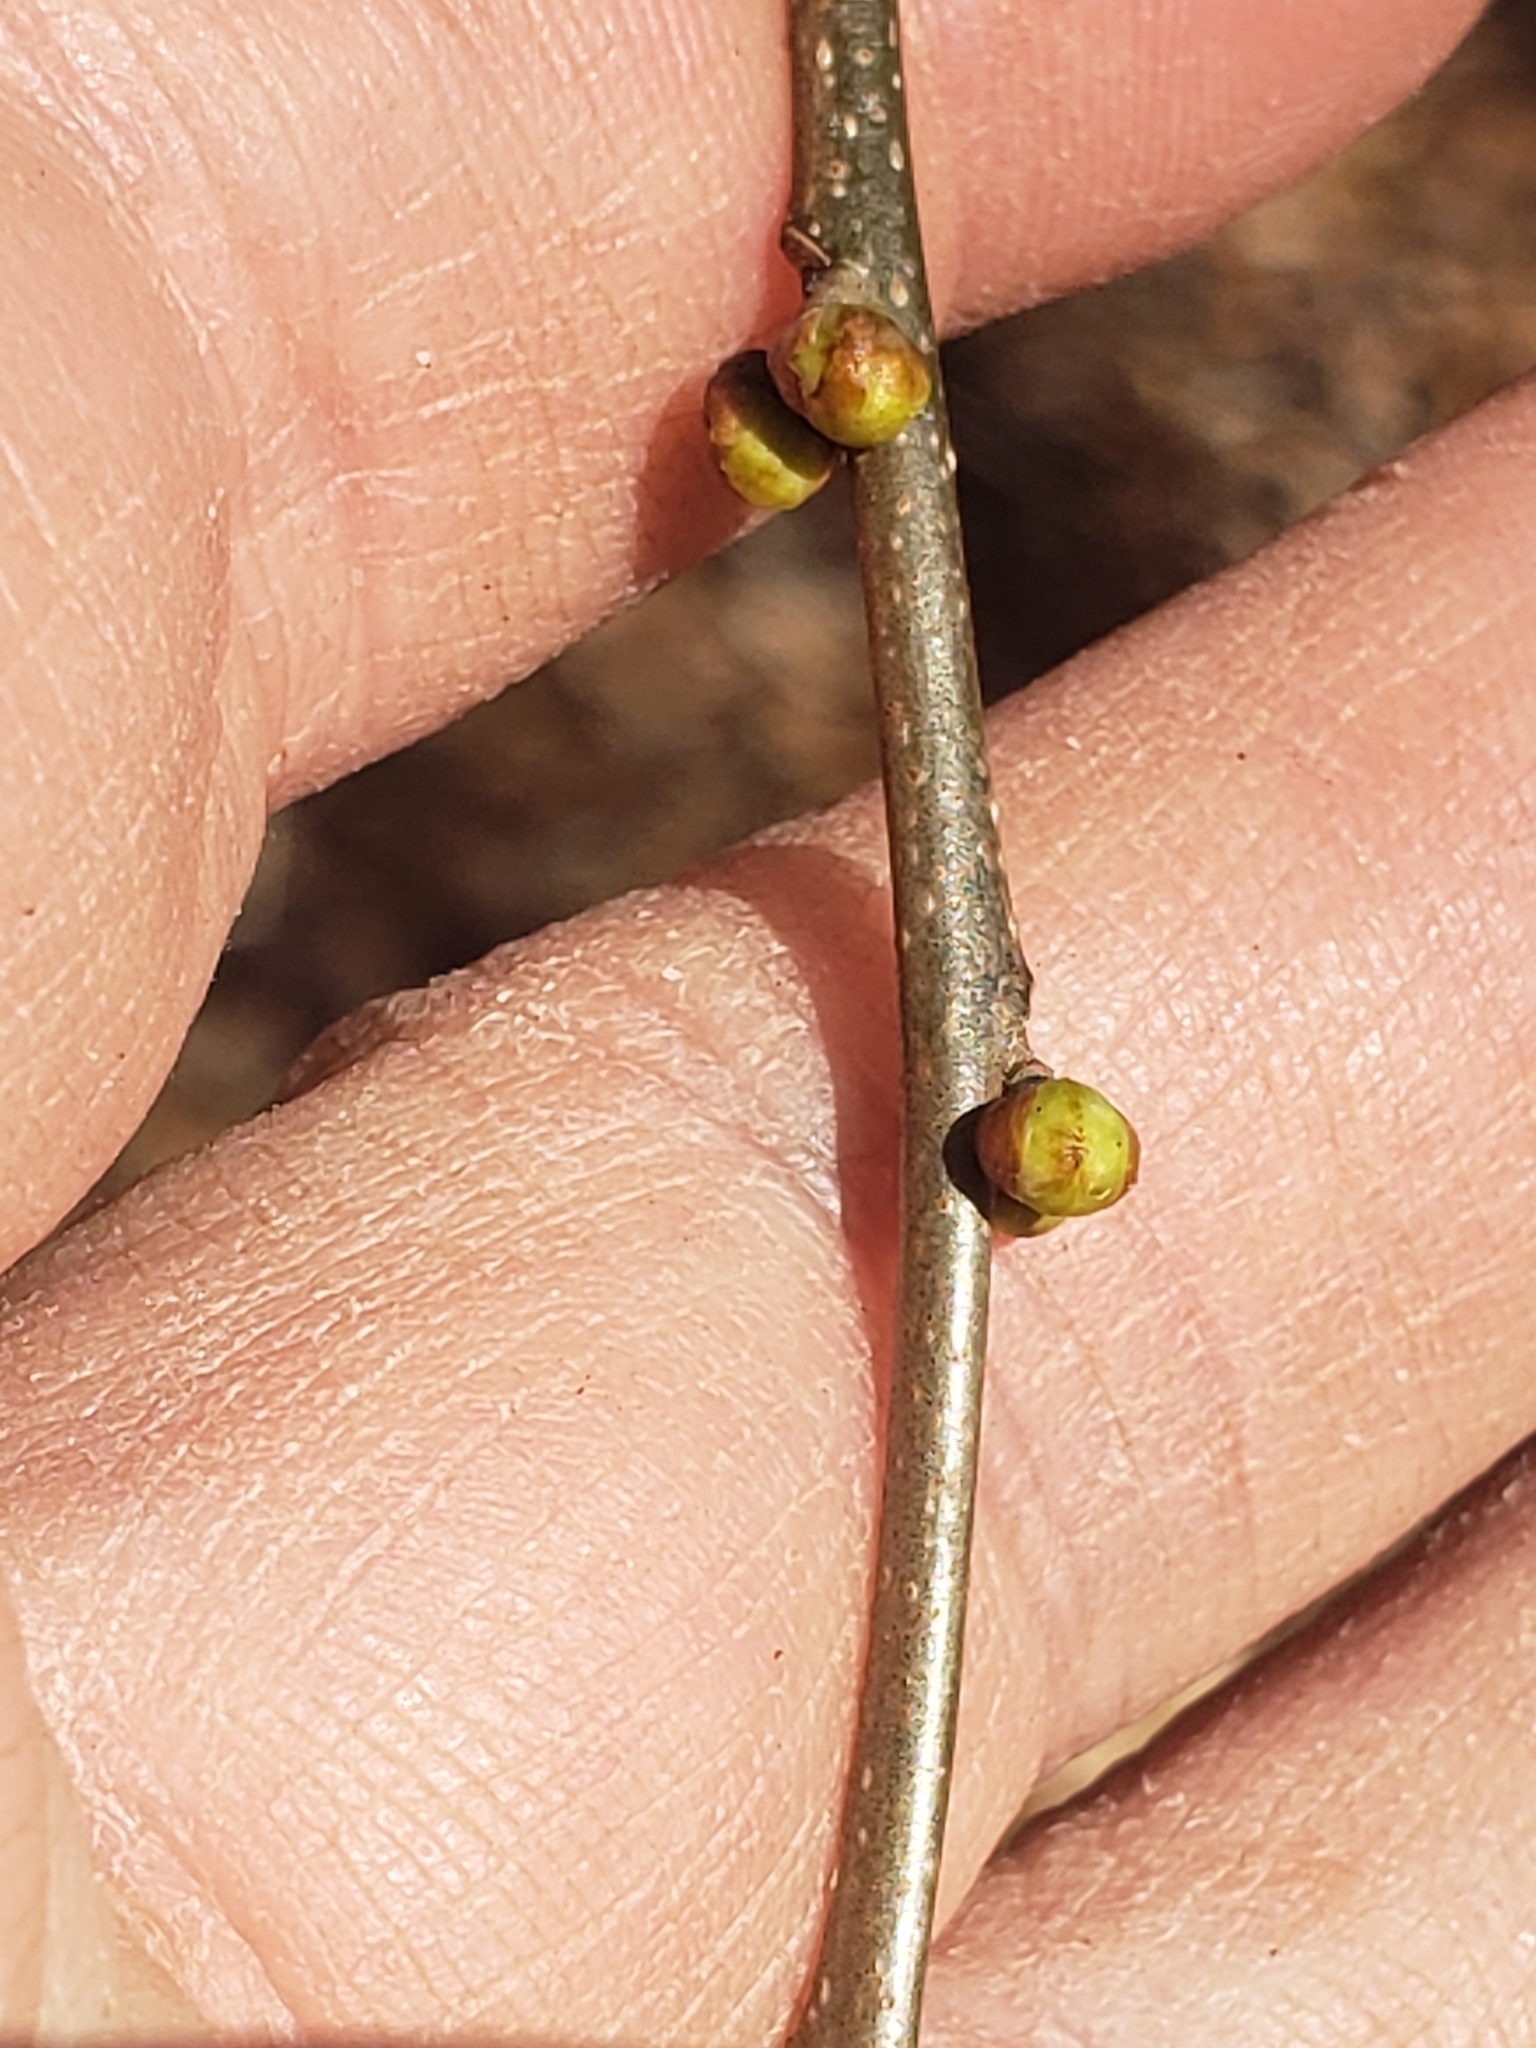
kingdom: Plantae
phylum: Tracheophyta
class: Magnoliopsida
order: Laurales
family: Lauraceae
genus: Lindera
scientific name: Lindera benzoin
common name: Spicebush
